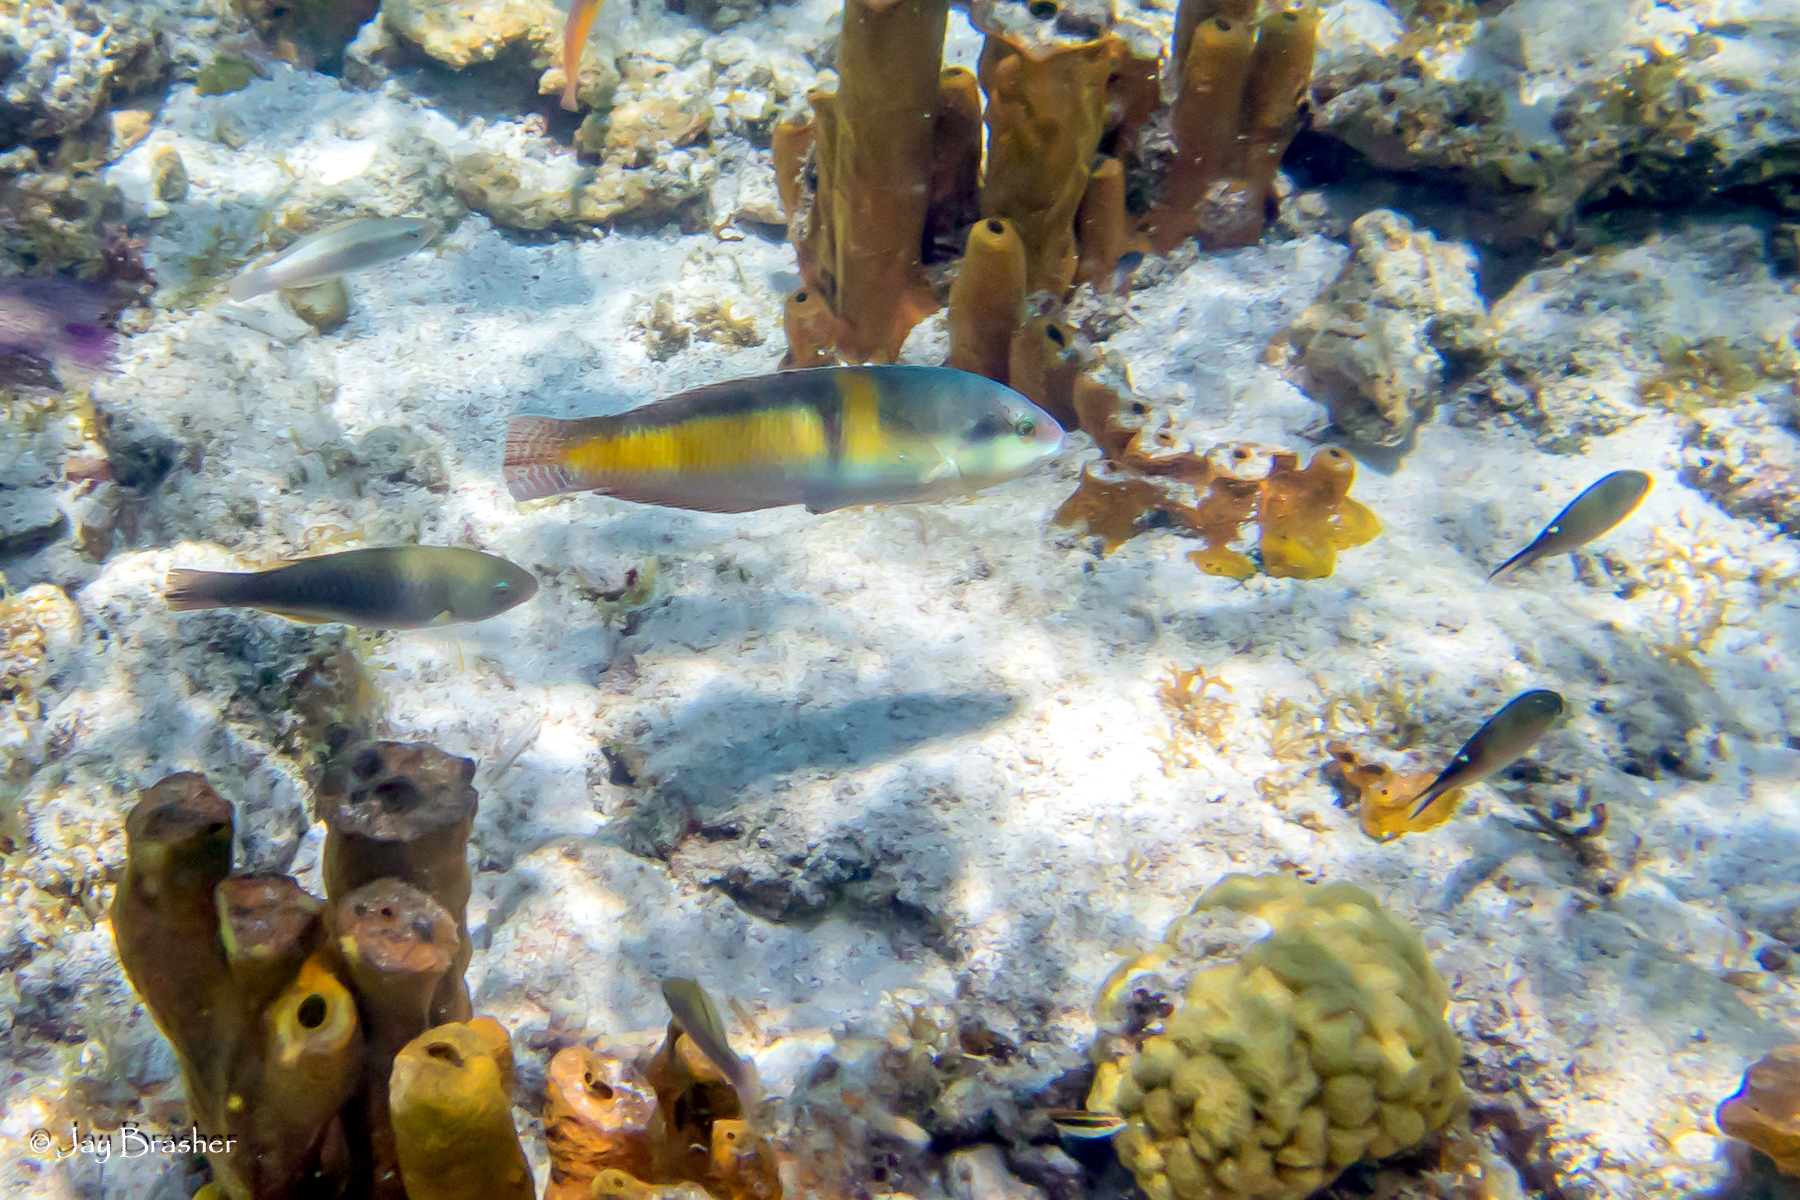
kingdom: Animalia
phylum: Chordata
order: Perciformes
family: Labridae
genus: Halichoeres
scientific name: Halichoeres garnoti
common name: Yellowhead wrasse
